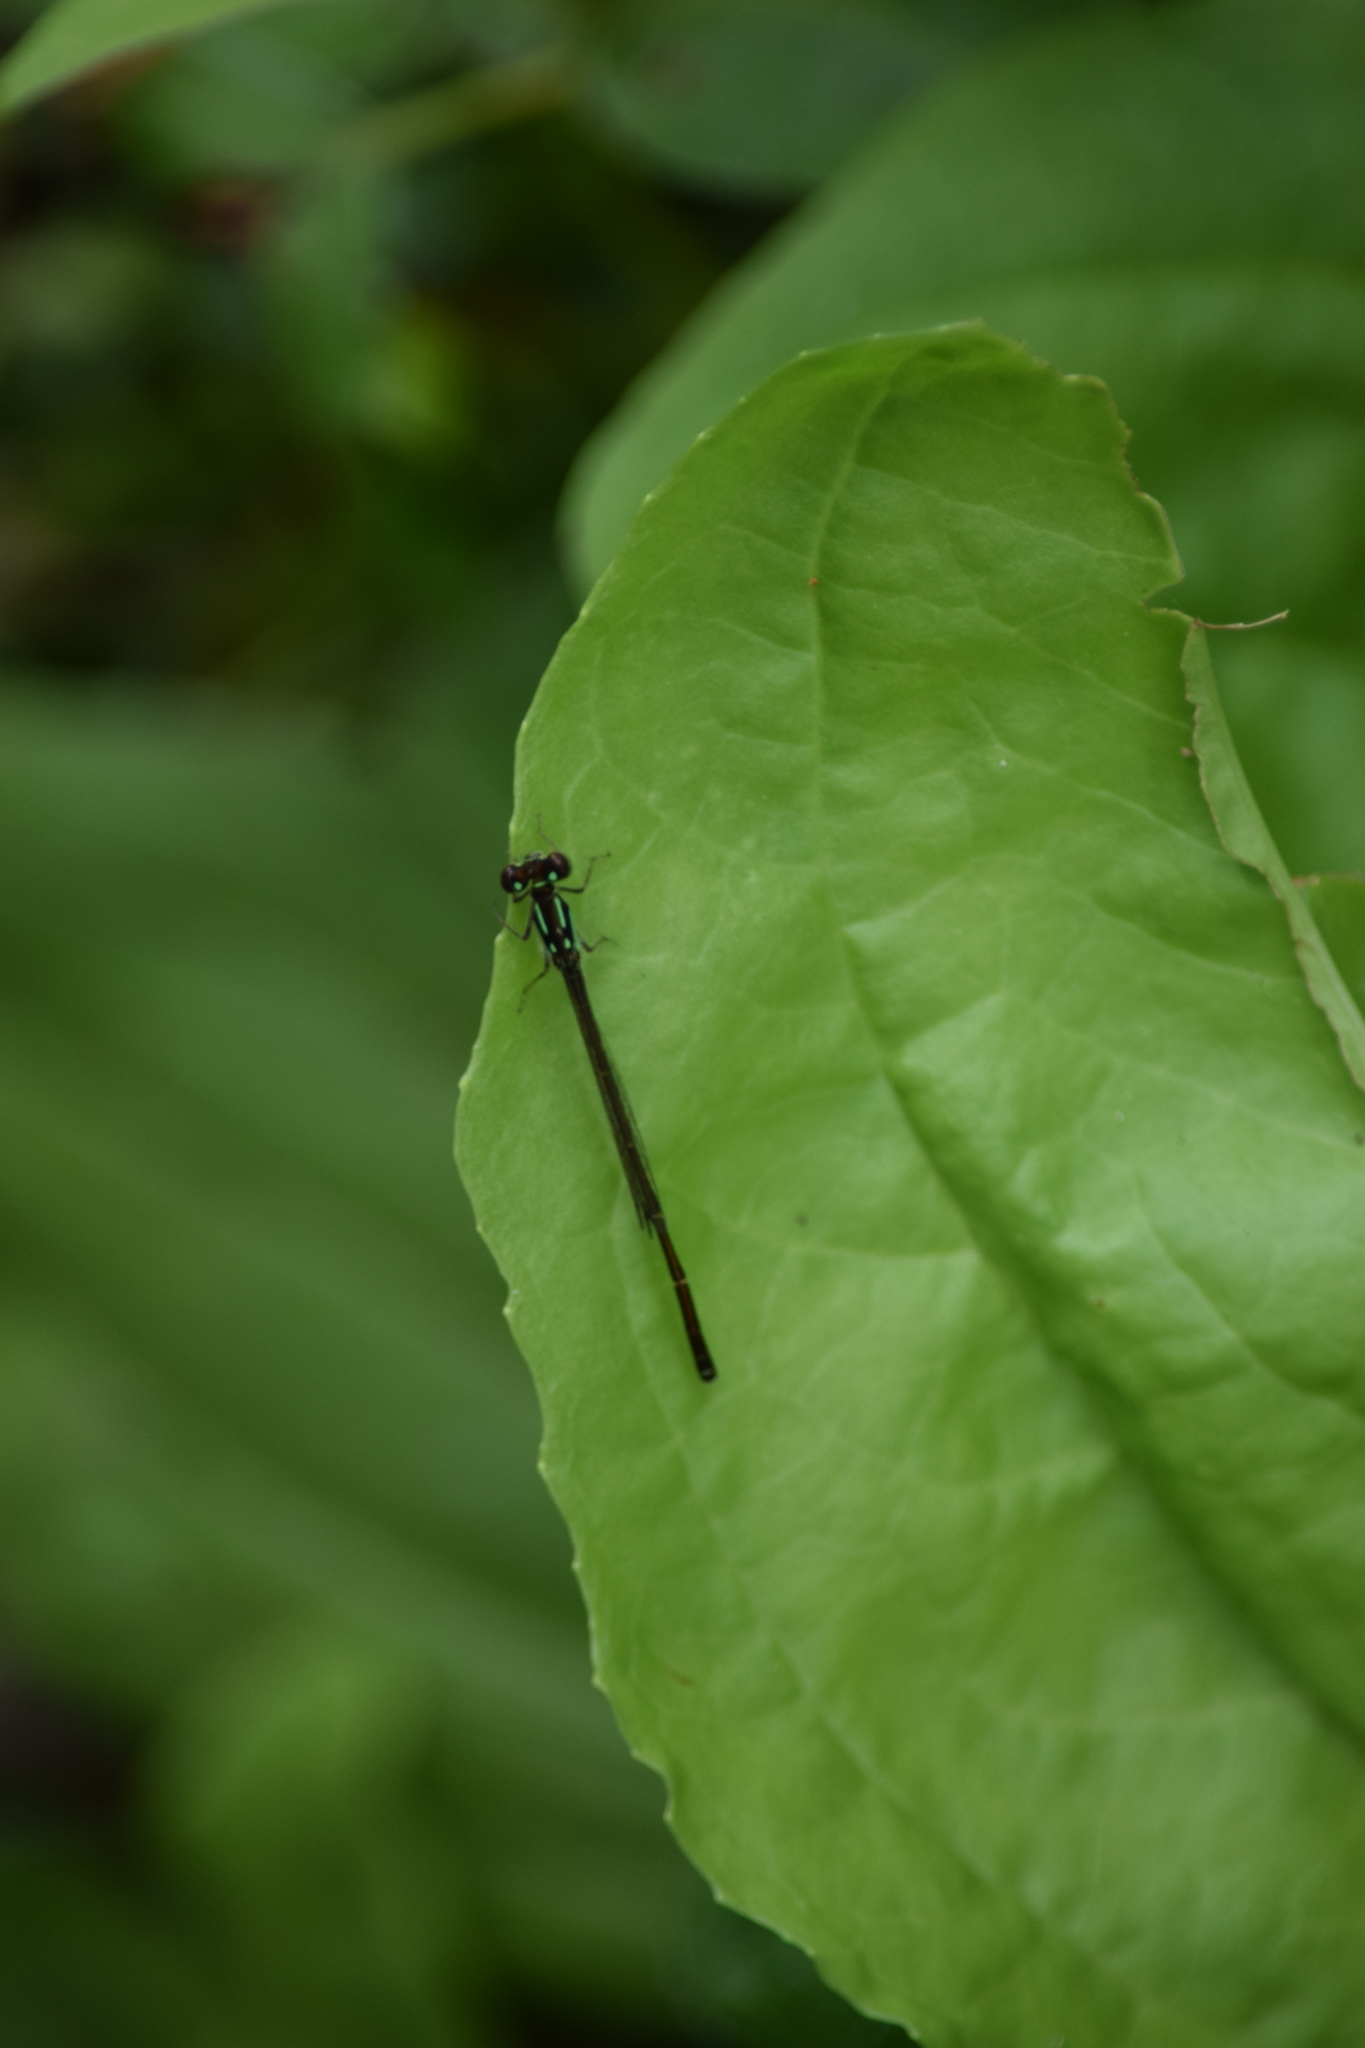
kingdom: Animalia
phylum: Arthropoda
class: Insecta
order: Odonata
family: Coenagrionidae
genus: Ischnura
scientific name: Ischnura posita
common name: Fragile forktail
